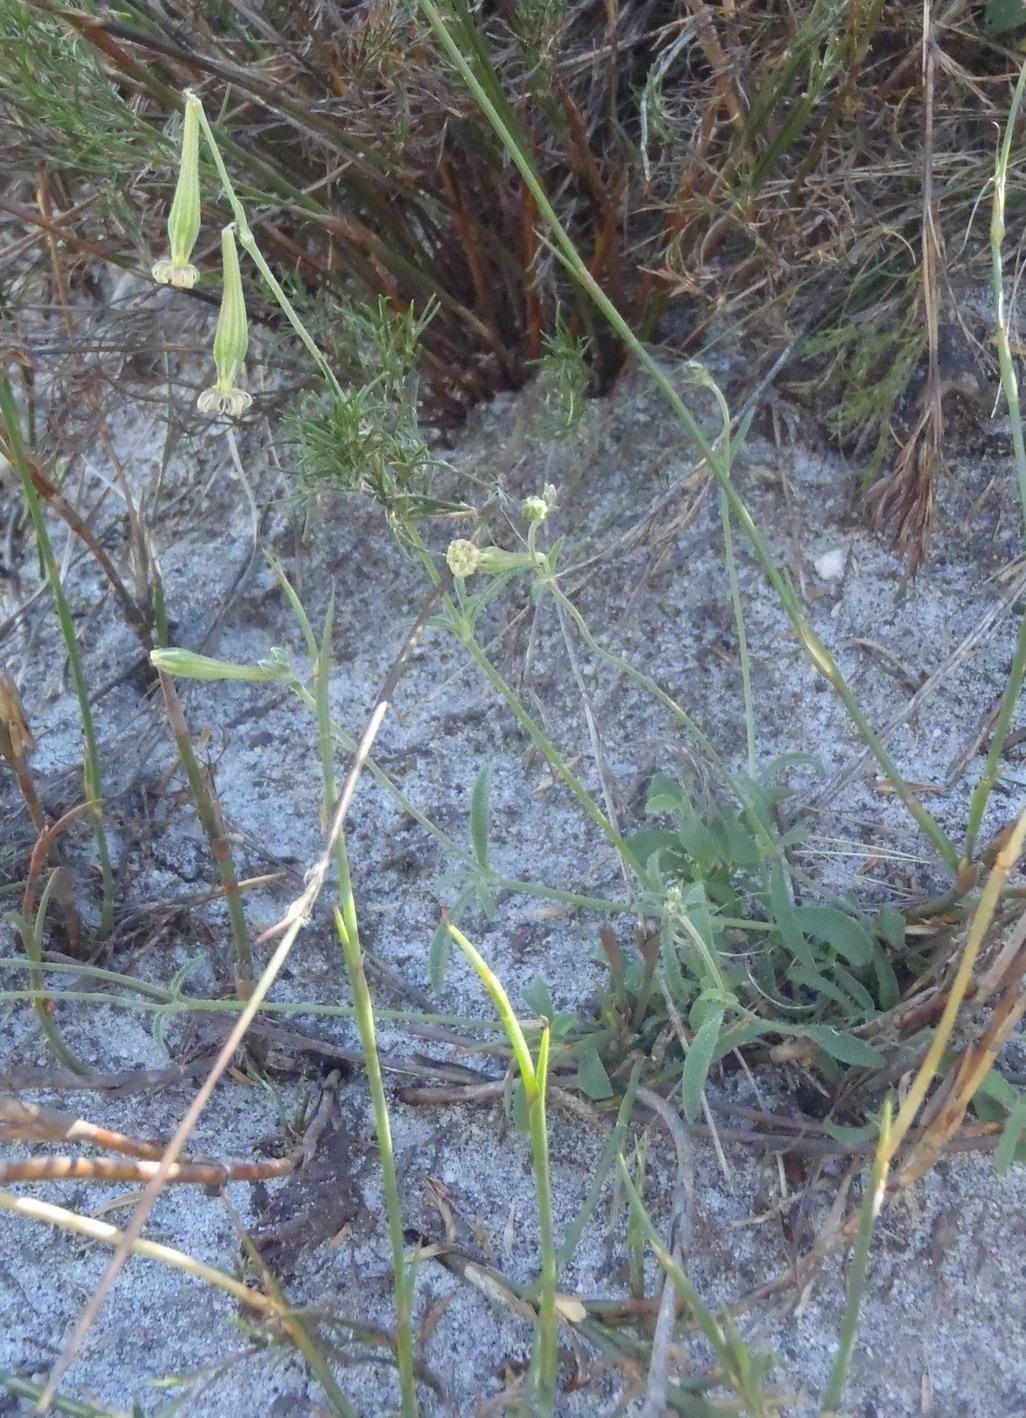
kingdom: Plantae
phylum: Tracheophyta
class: Magnoliopsida
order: Caryophyllales
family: Caryophyllaceae
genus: Silene
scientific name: Silene burchellii
